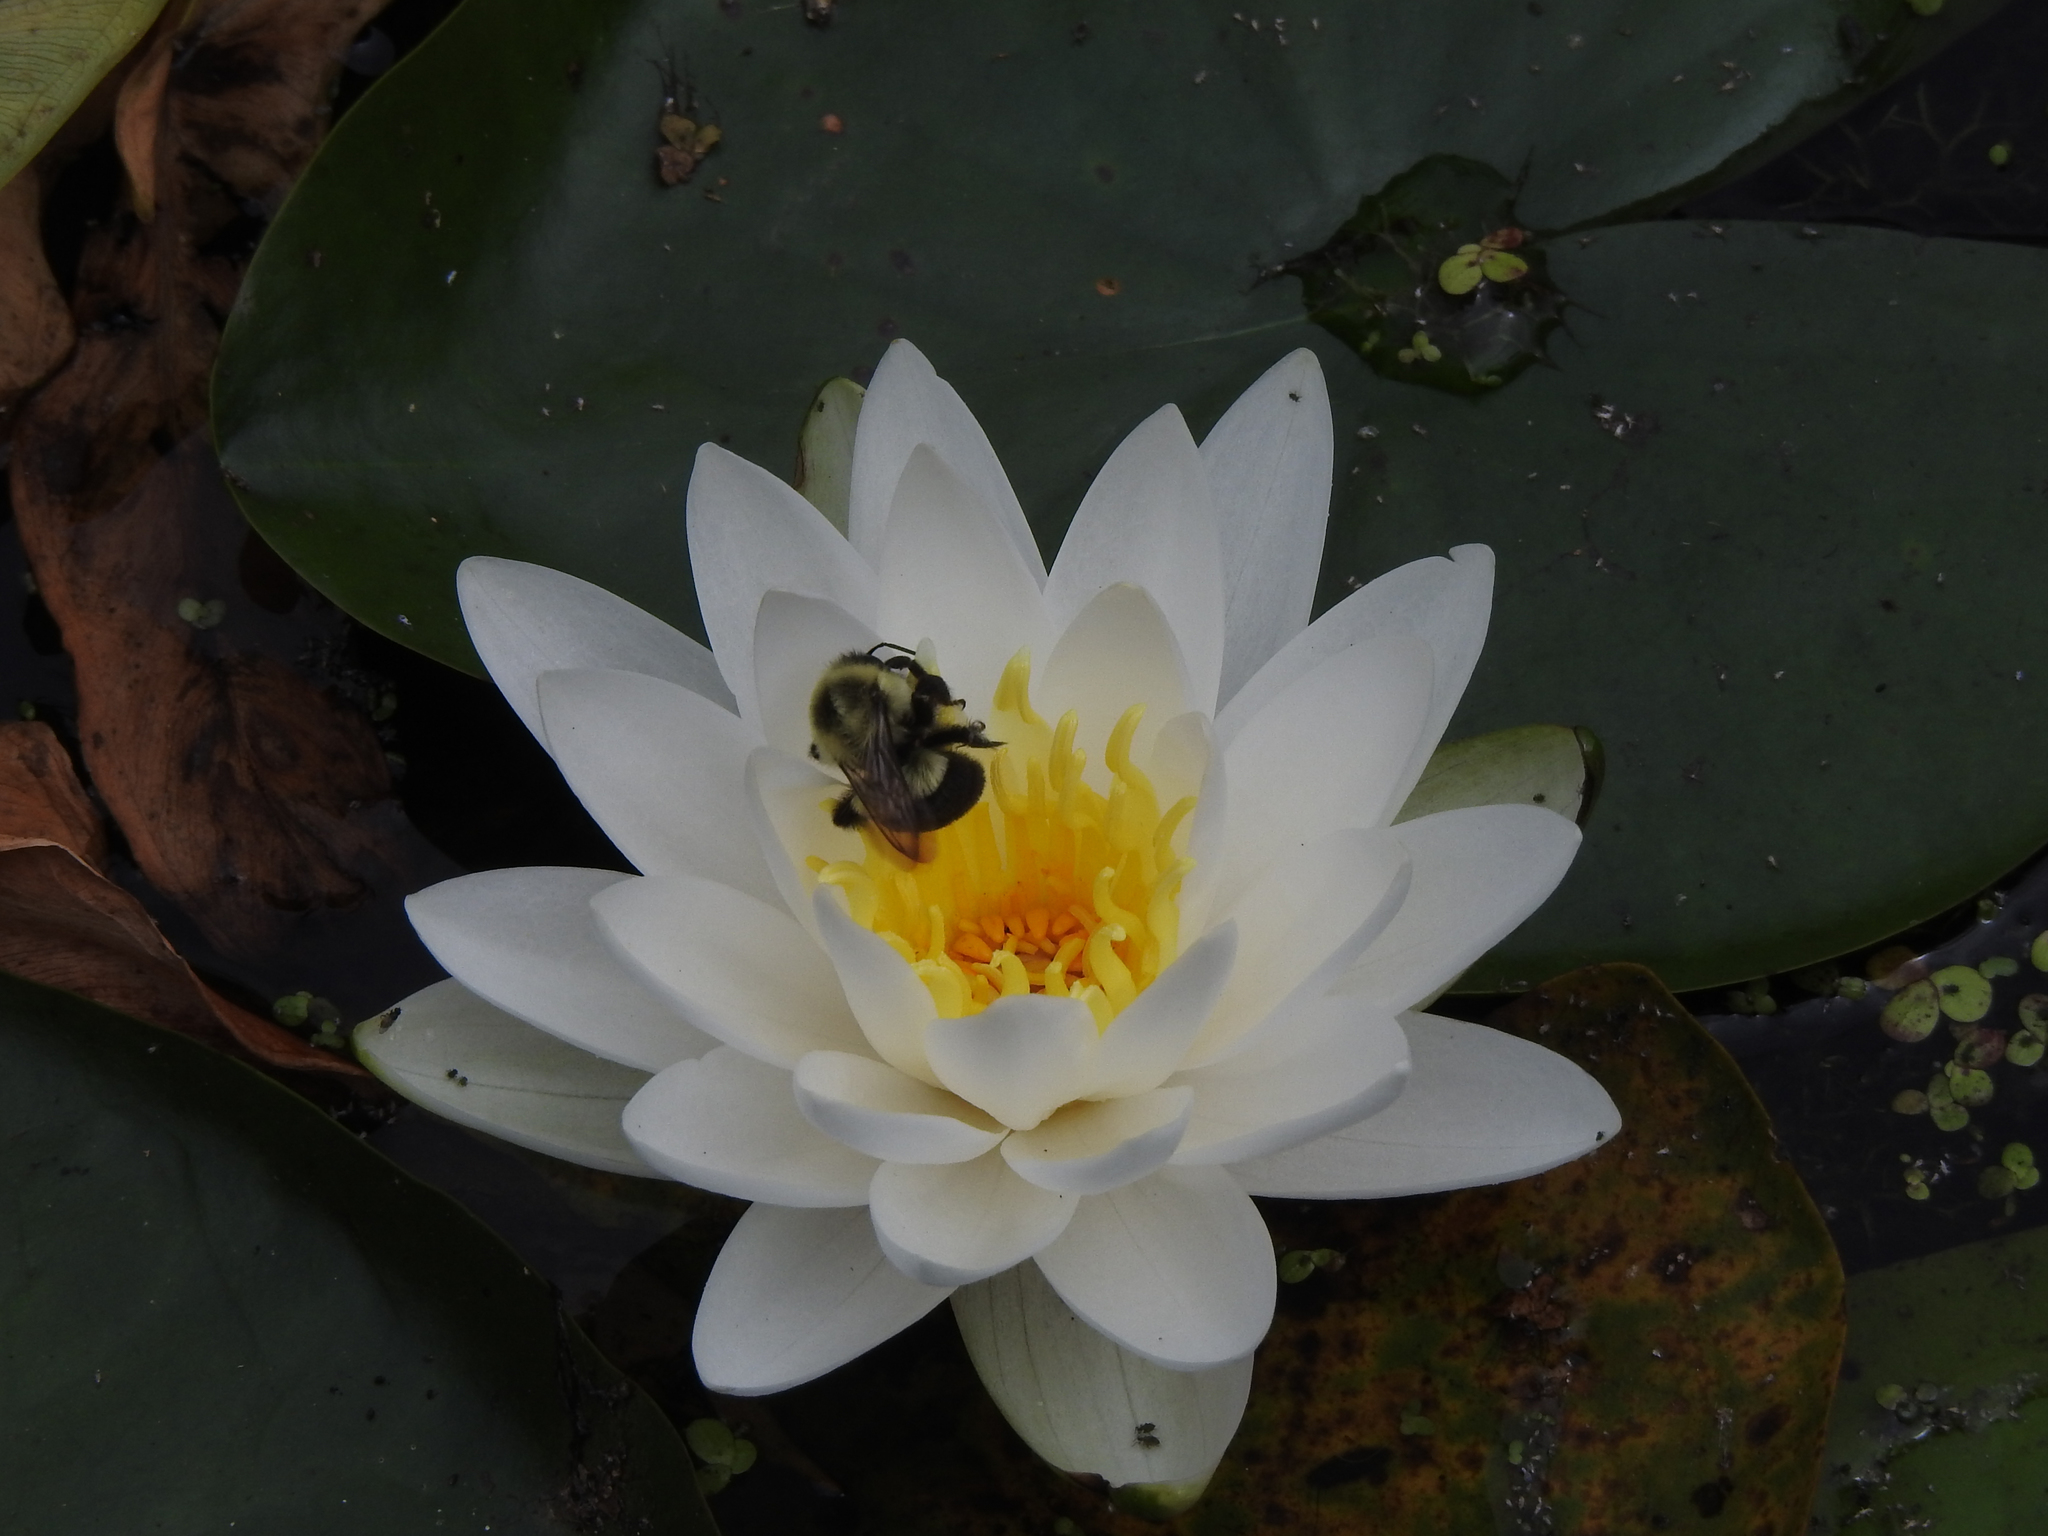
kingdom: Plantae
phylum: Tracheophyta
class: Magnoliopsida
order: Nymphaeales
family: Nymphaeaceae
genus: Nymphaea
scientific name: Nymphaea odorata
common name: Fragrant water-lily
